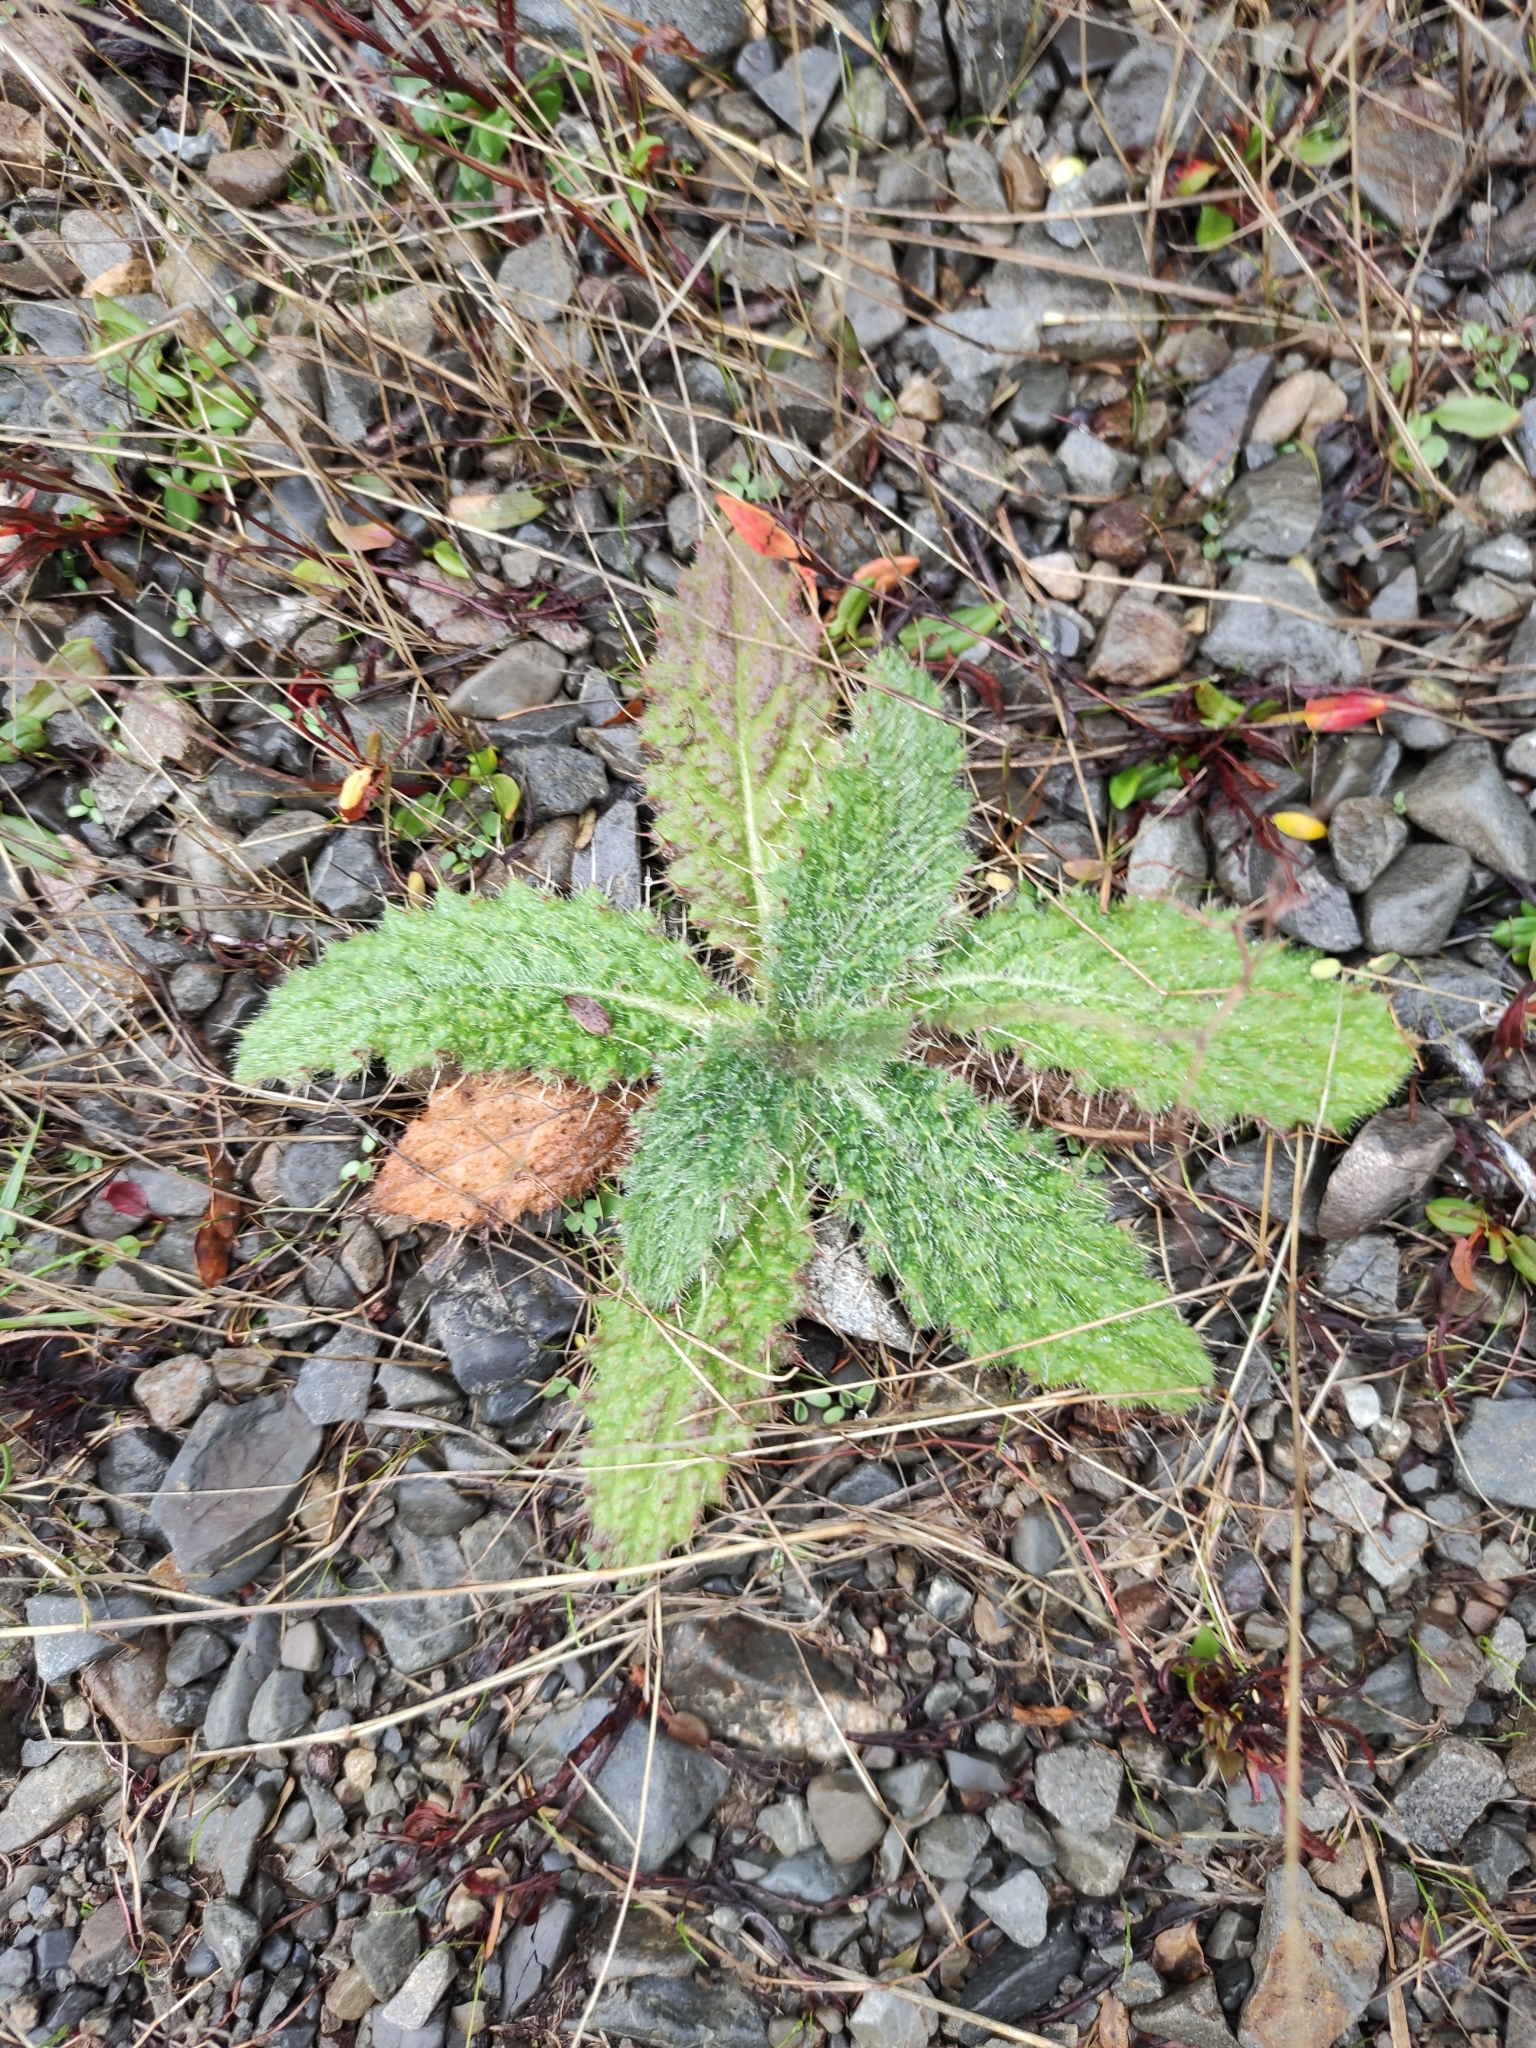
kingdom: Plantae
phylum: Tracheophyta
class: Magnoliopsida
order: Asterales
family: Asteraceae
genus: Cirsium
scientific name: Cirsium vulgare
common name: Bull thistle
